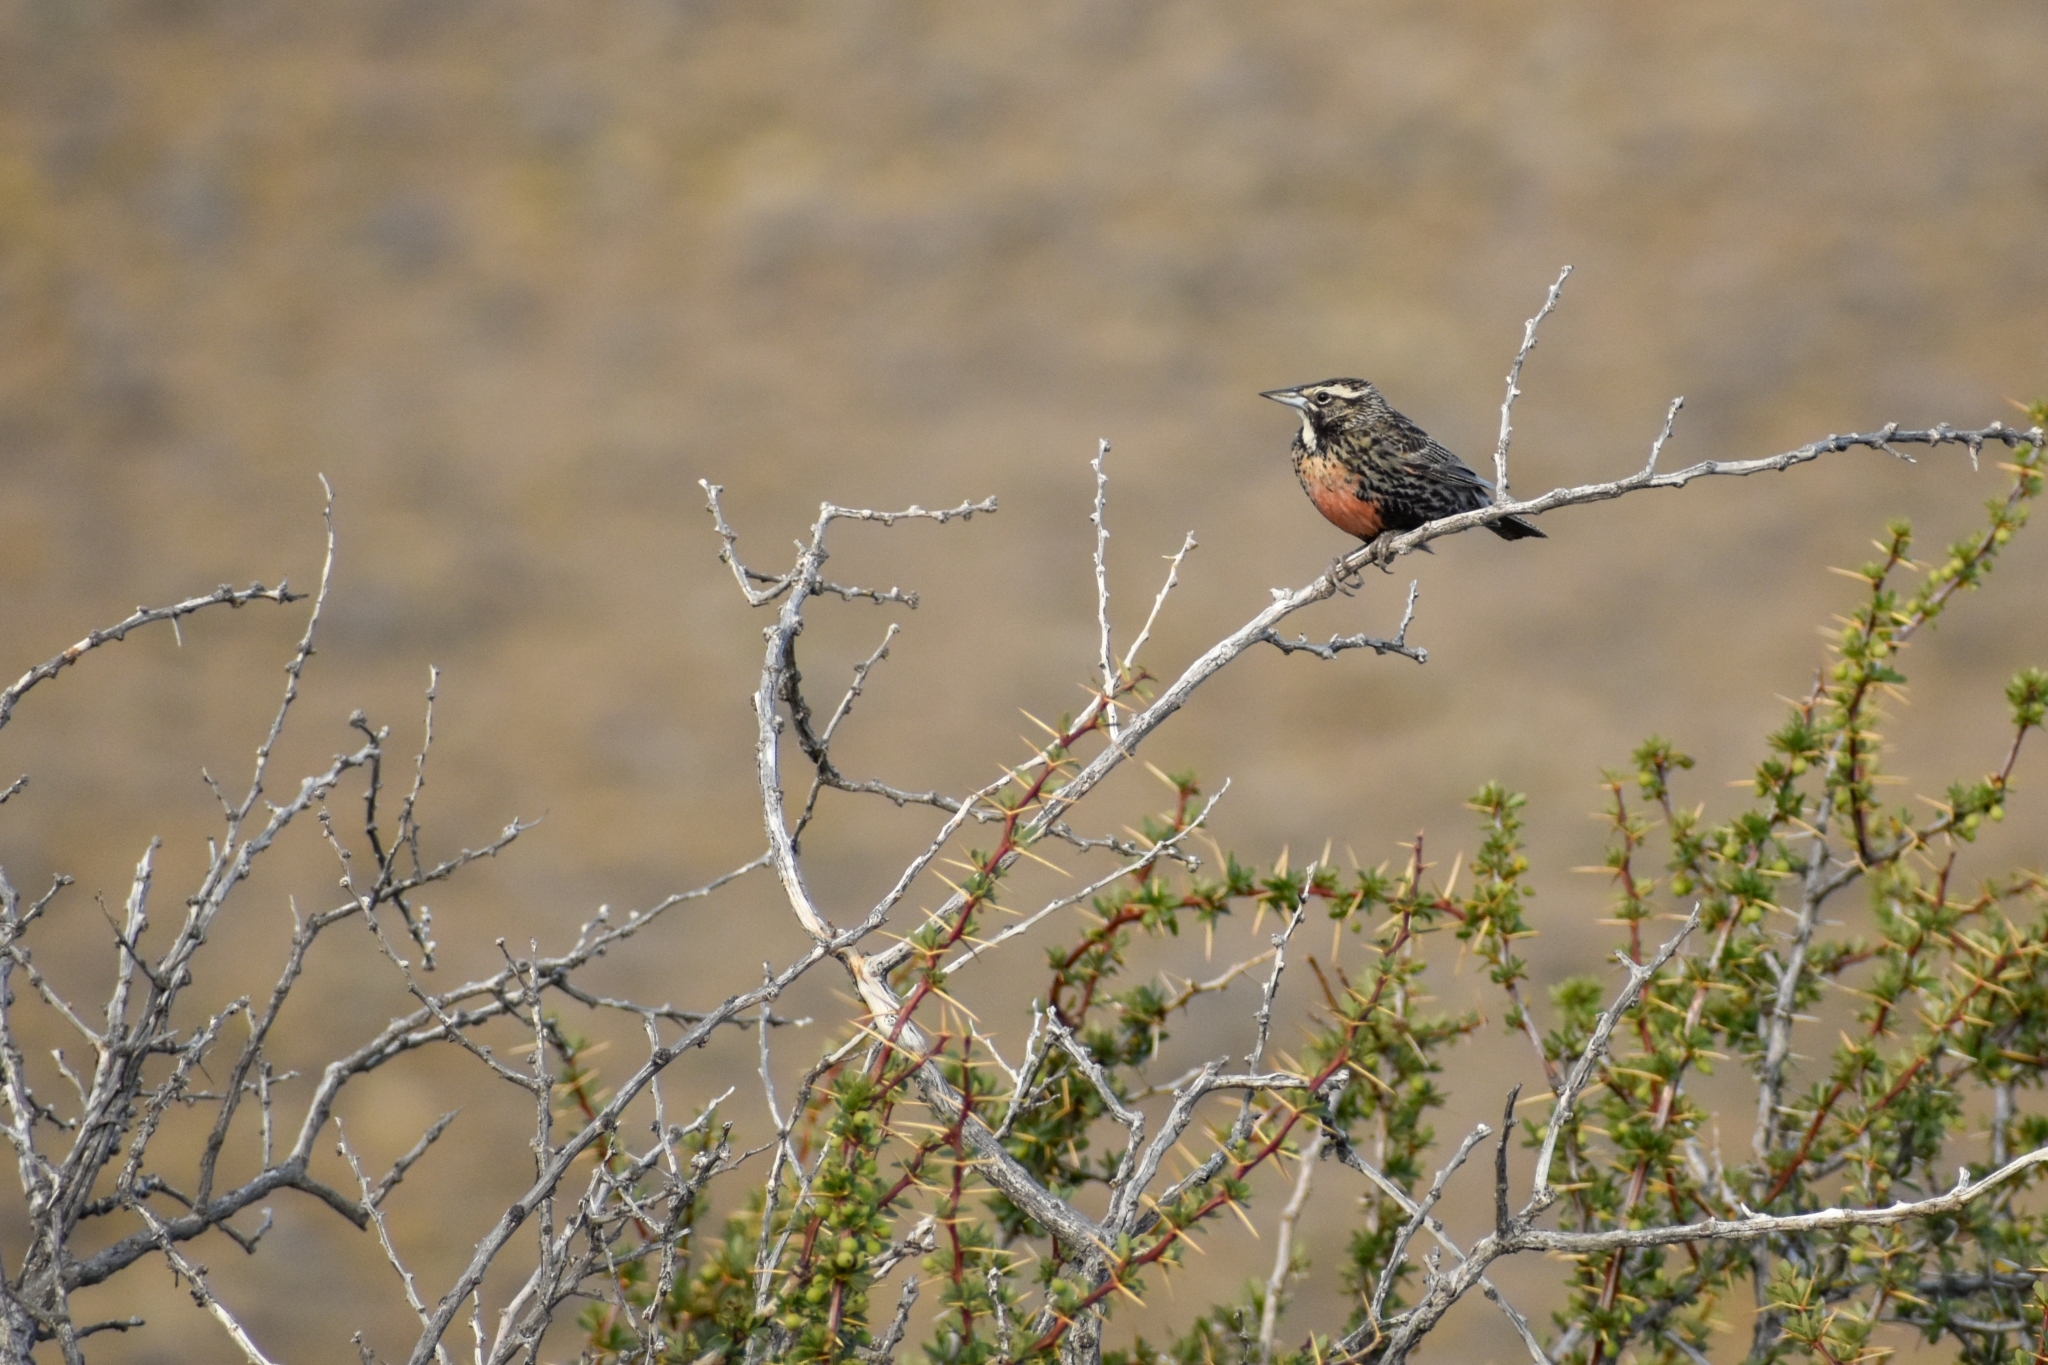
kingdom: Animalia
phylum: Chordata
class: Aves
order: Passeriformes
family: Icteridae
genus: Sturnella
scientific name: Sturnella loyca
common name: Long-tailed meadowlark
